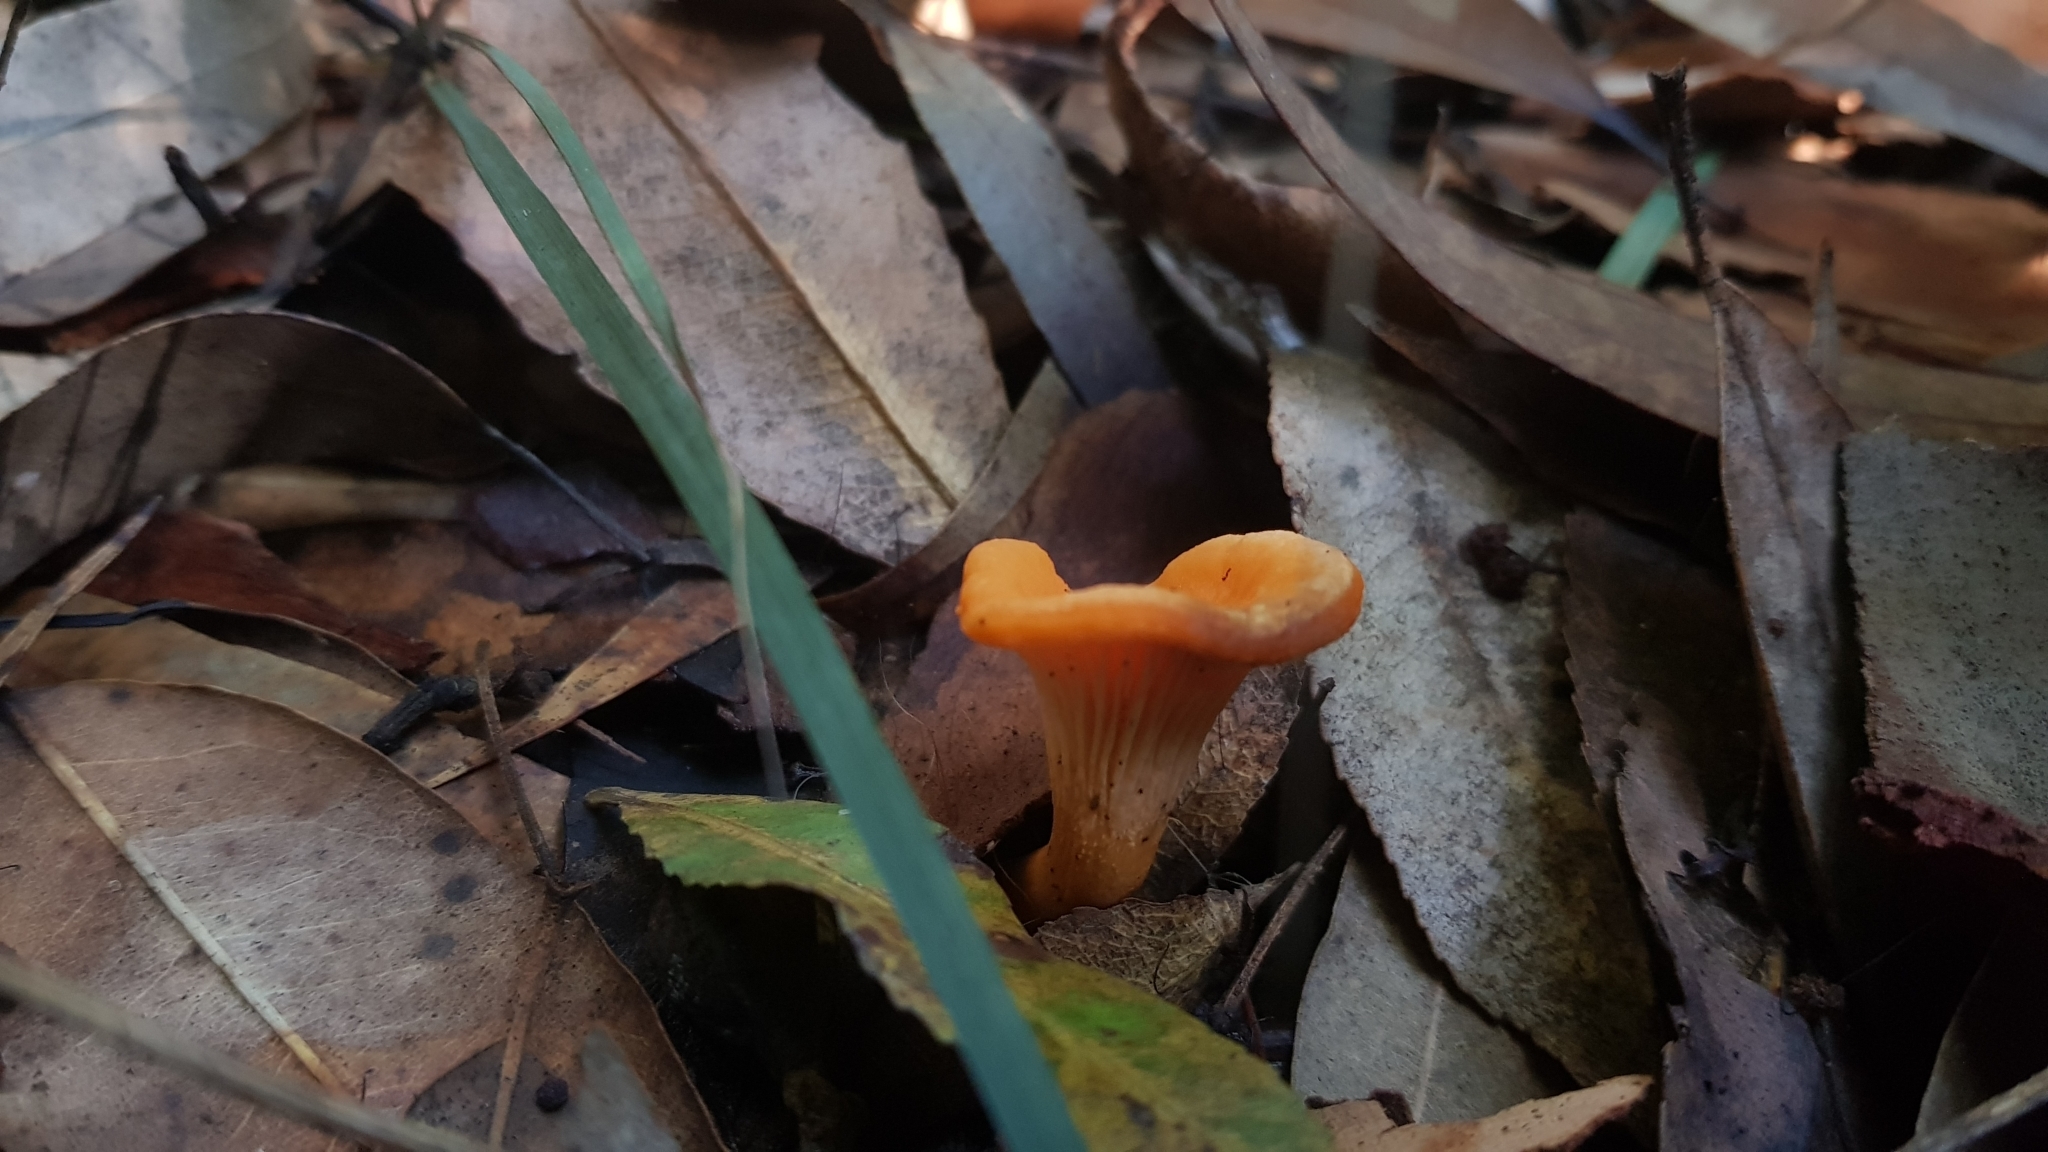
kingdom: Fungi
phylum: Basidiomycota
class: Agaricomycetes
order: Cantharellales
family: Hydnaceae
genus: Cantharellus
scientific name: Cantharellus
